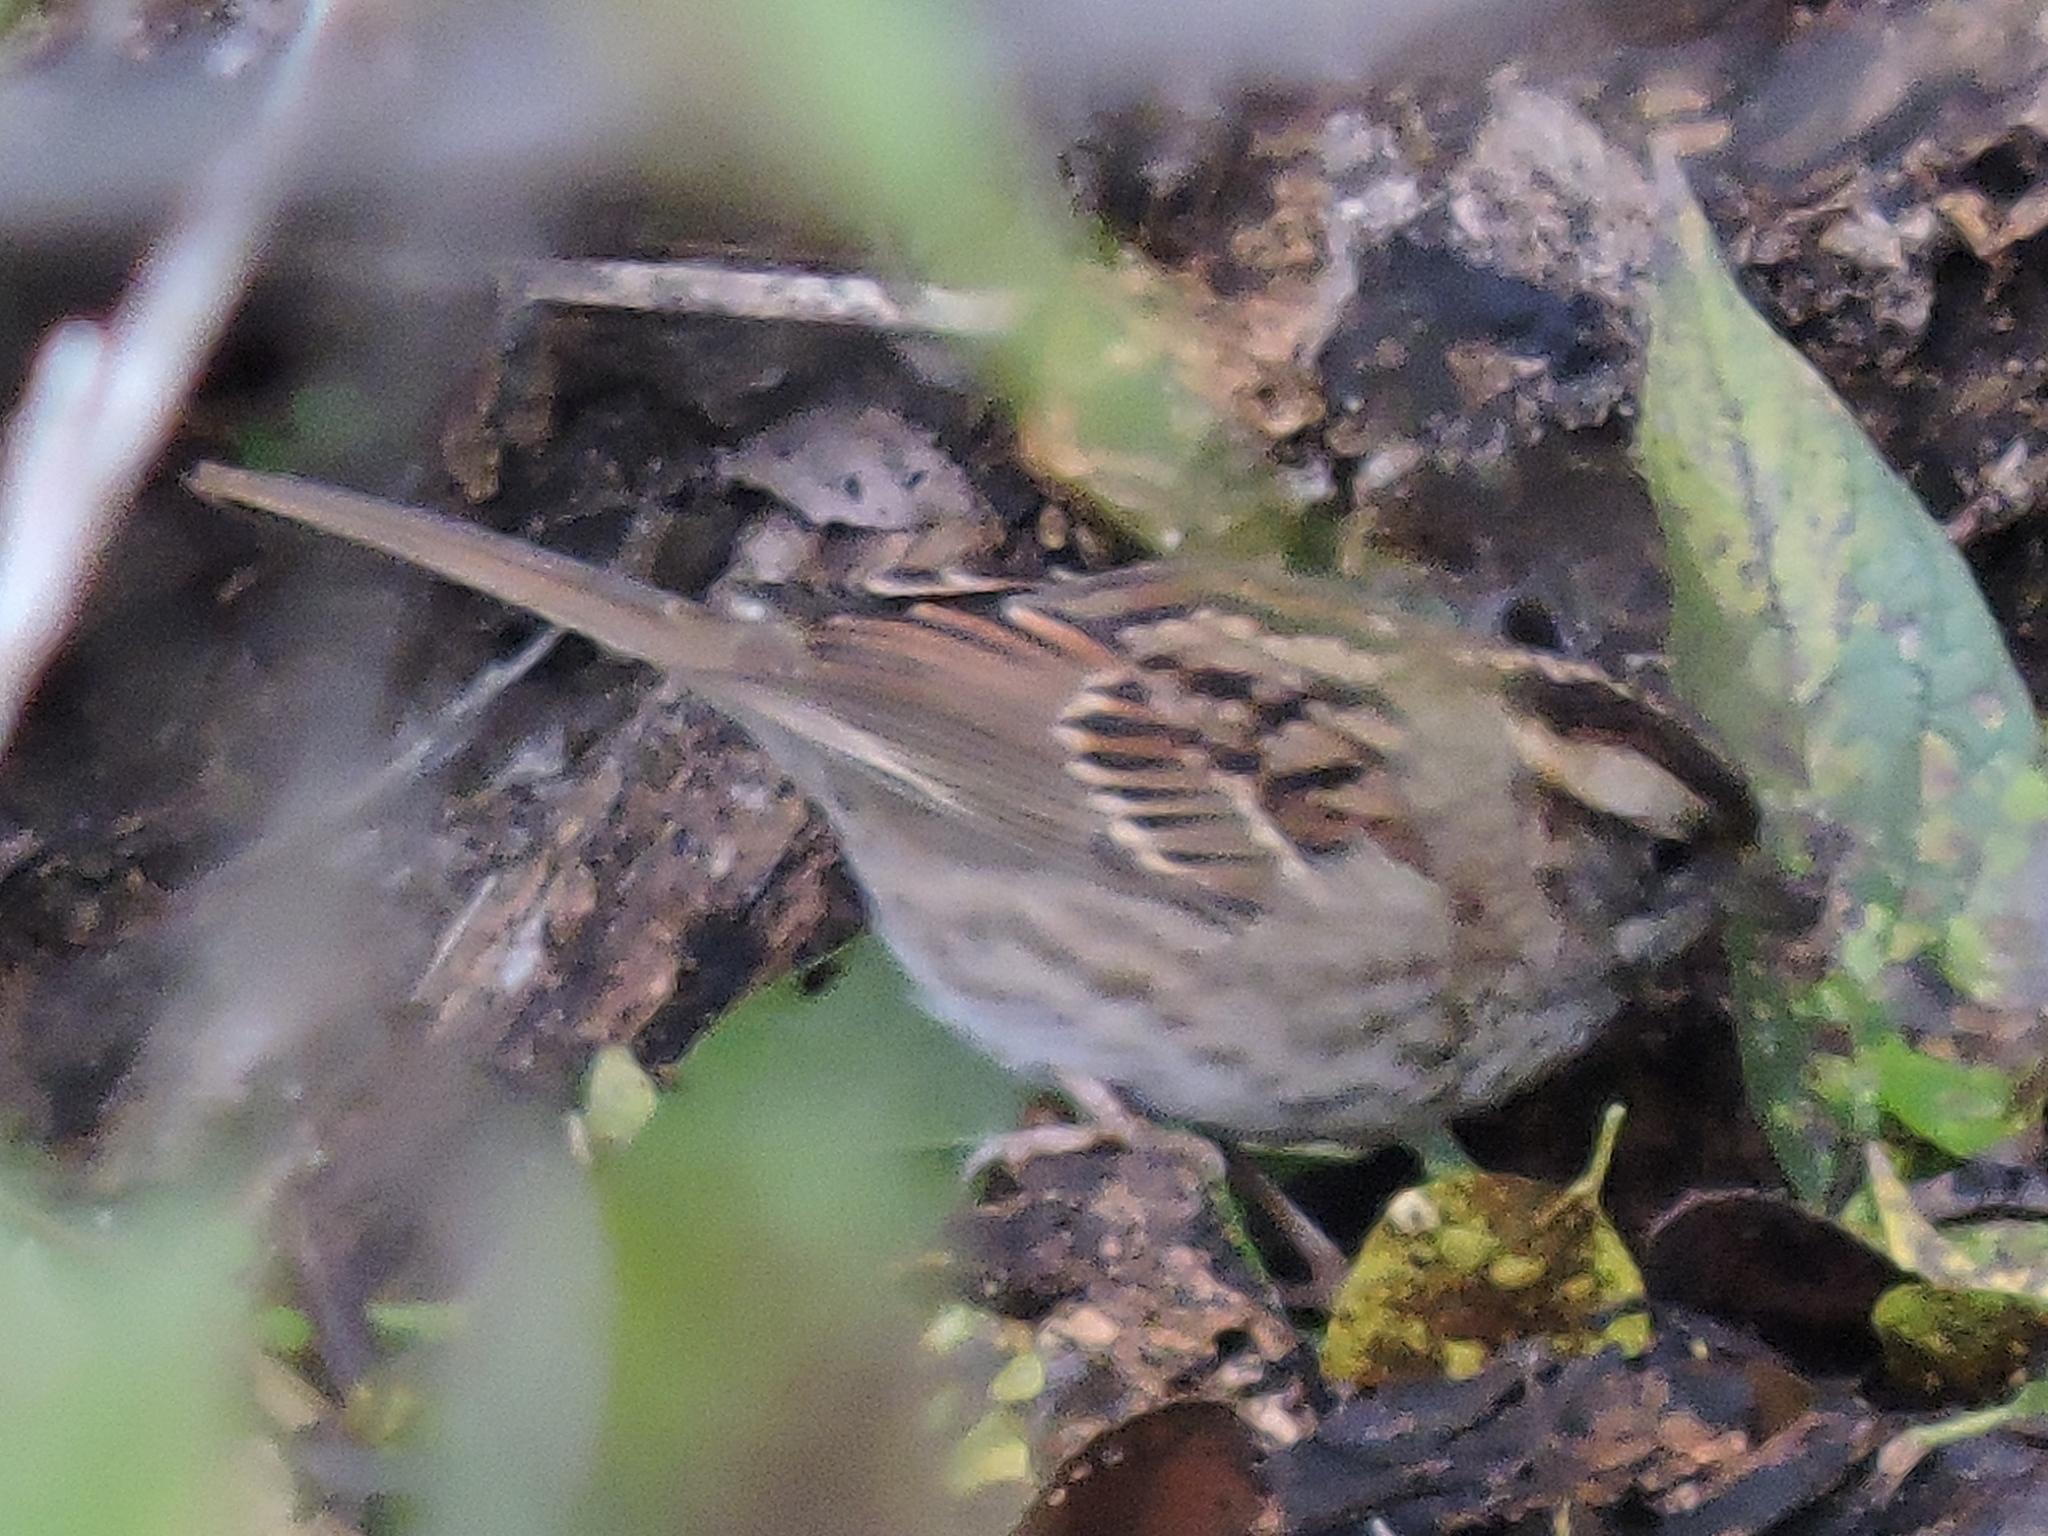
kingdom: Animalia
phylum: Chordata
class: Aves
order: Passeriformes
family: Passerellidae
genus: Zonotrichia
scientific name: Zonotrichia albicollis
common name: White-throated sparrow
